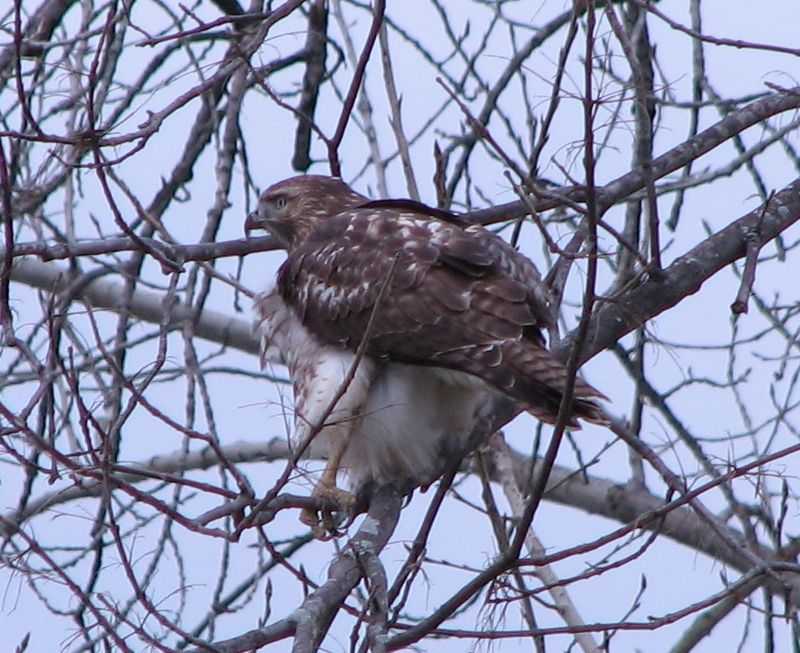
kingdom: Animalia
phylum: Chordata
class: Aves
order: Accipitriformes
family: Accipitridae
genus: Buteo
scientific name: Buteo jamaicensis
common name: Red-tailed hawk
